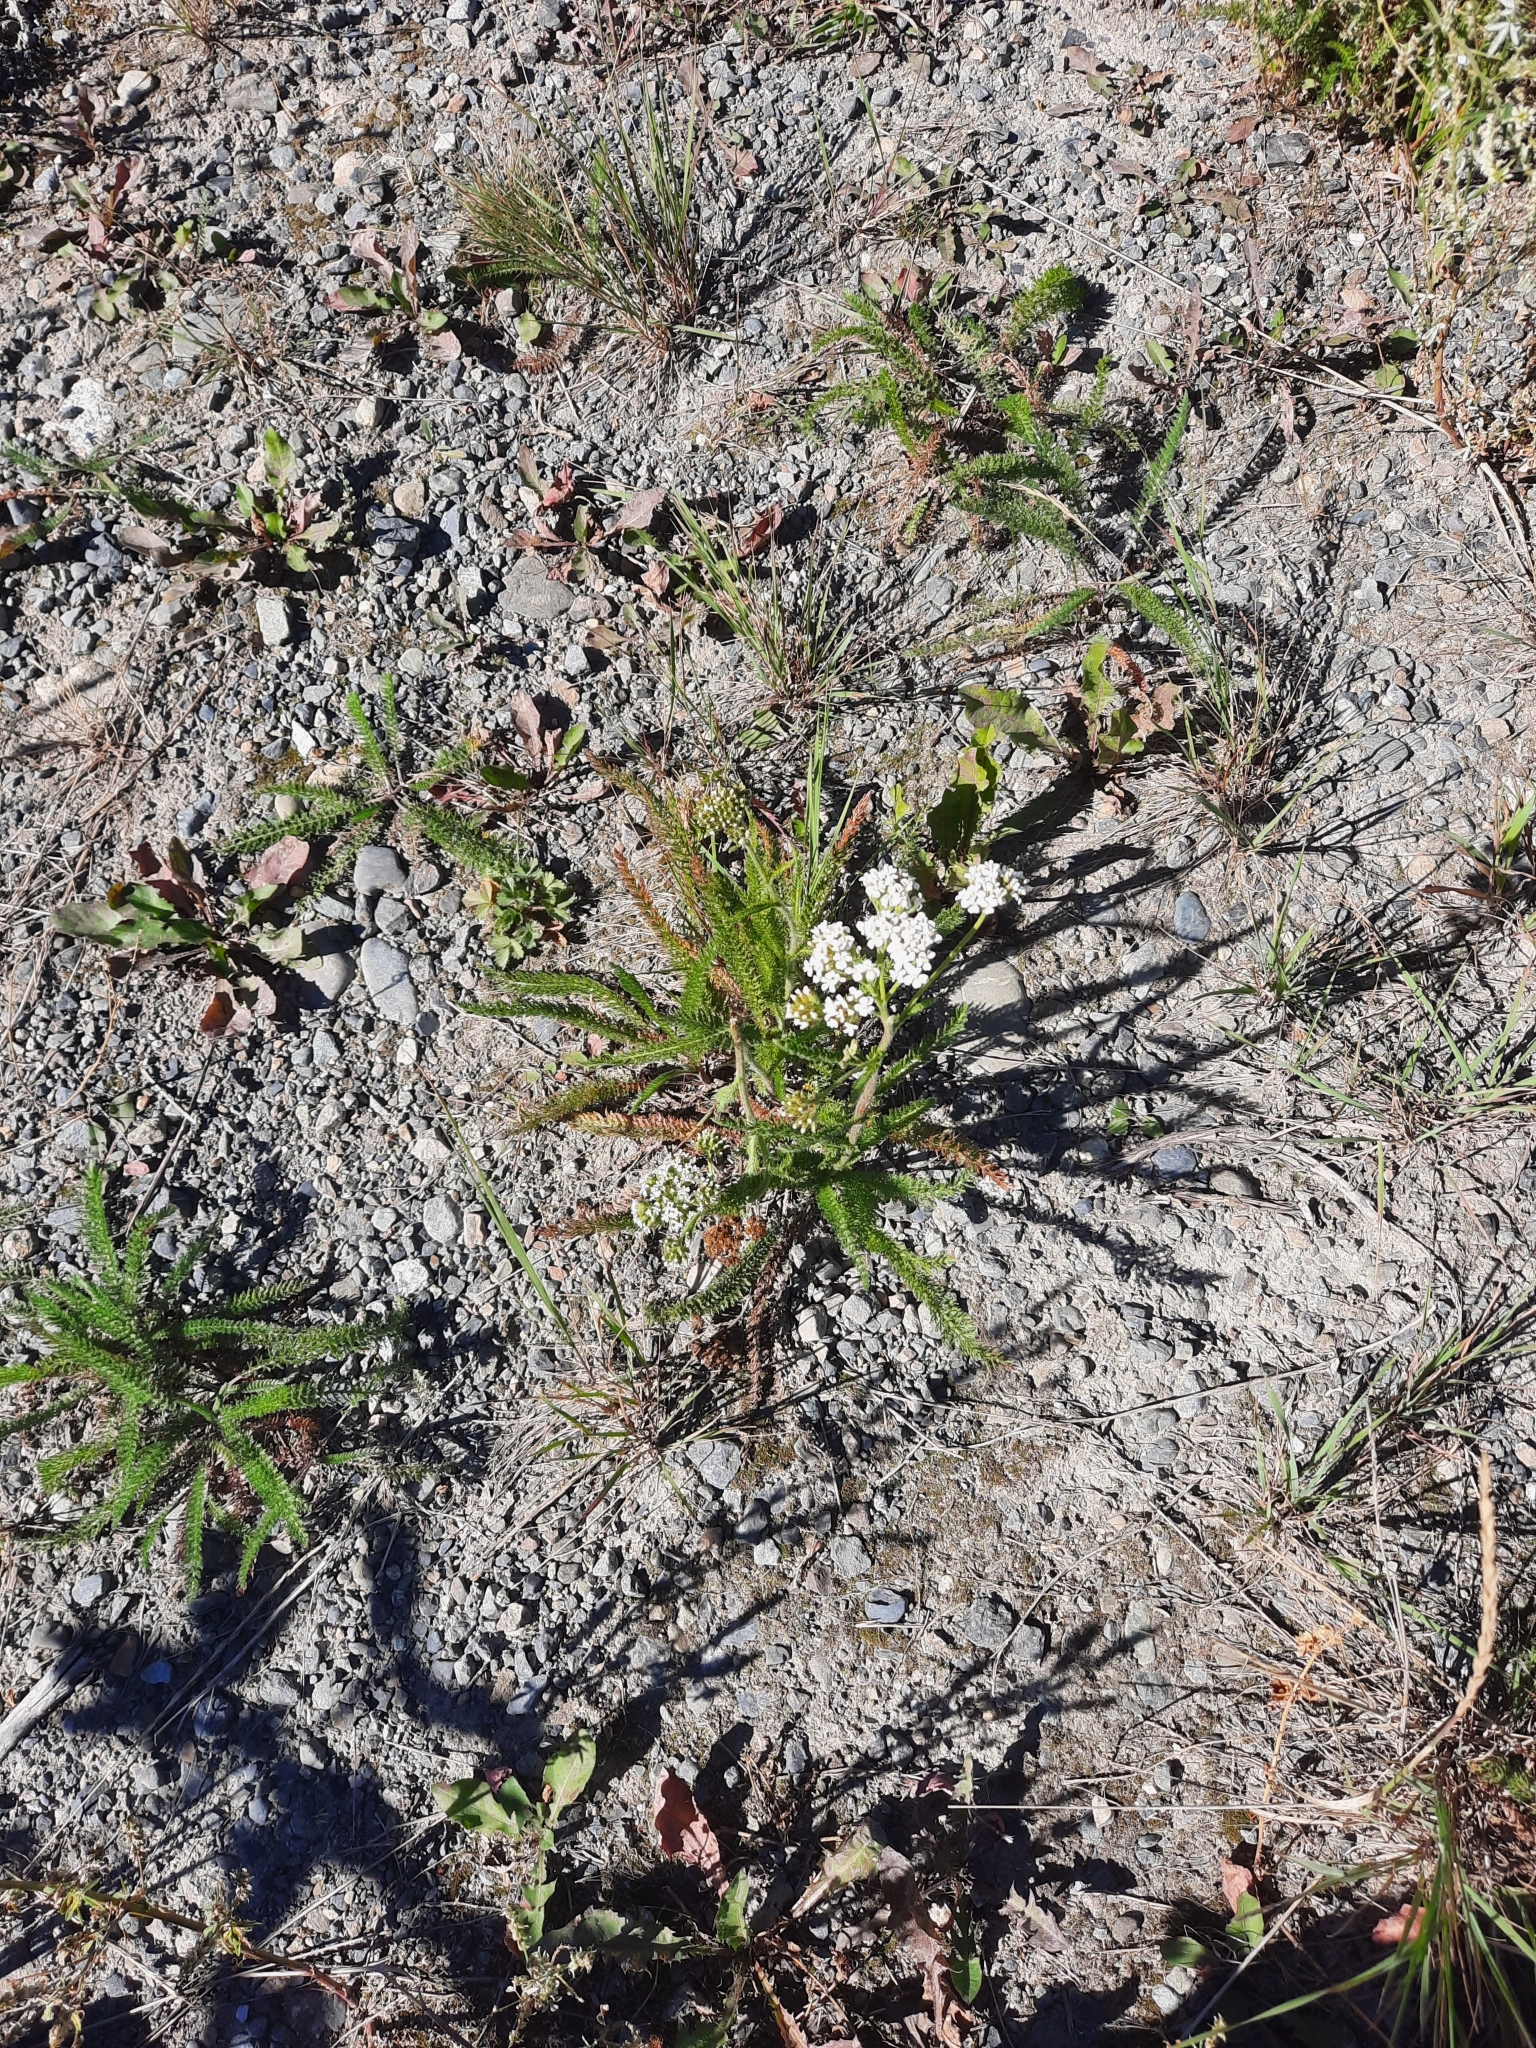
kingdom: Plantae
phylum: Tracheophyta
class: Magnoliopsida
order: Asterales
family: Asteraceae
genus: Achillea
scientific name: Achillea millefolium
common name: Yarrow
